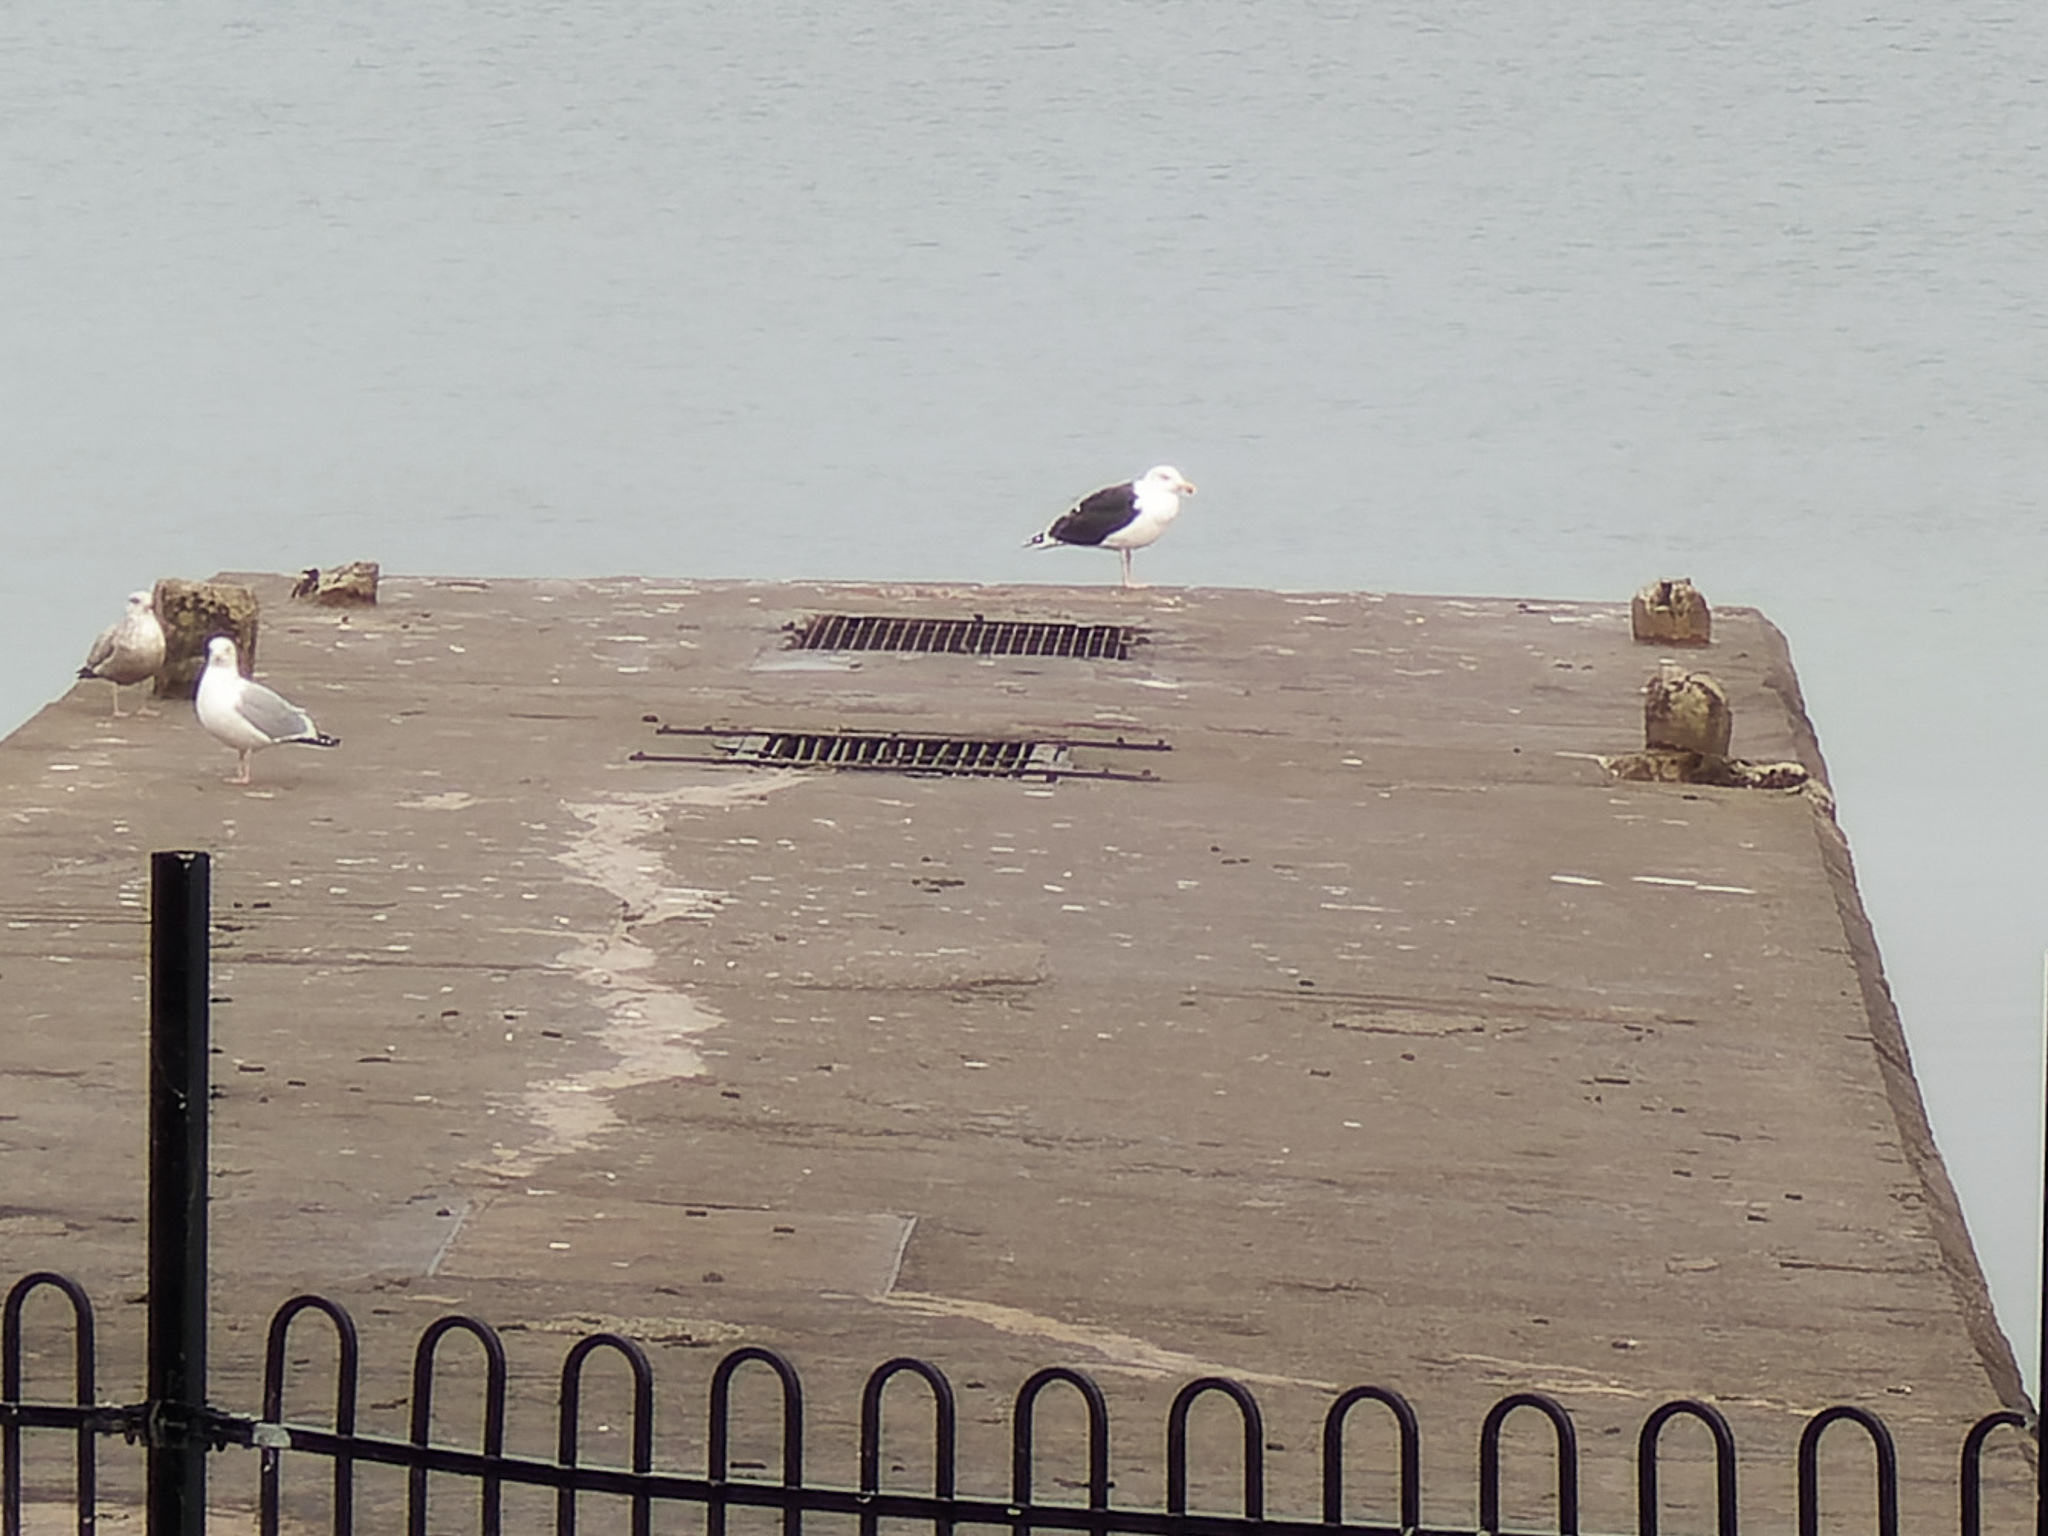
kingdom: Animalia
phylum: Chordata
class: Aves
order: Charadriiformes
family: Laridae
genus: Larus
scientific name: Larus marinus
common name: Great black-backed gull
